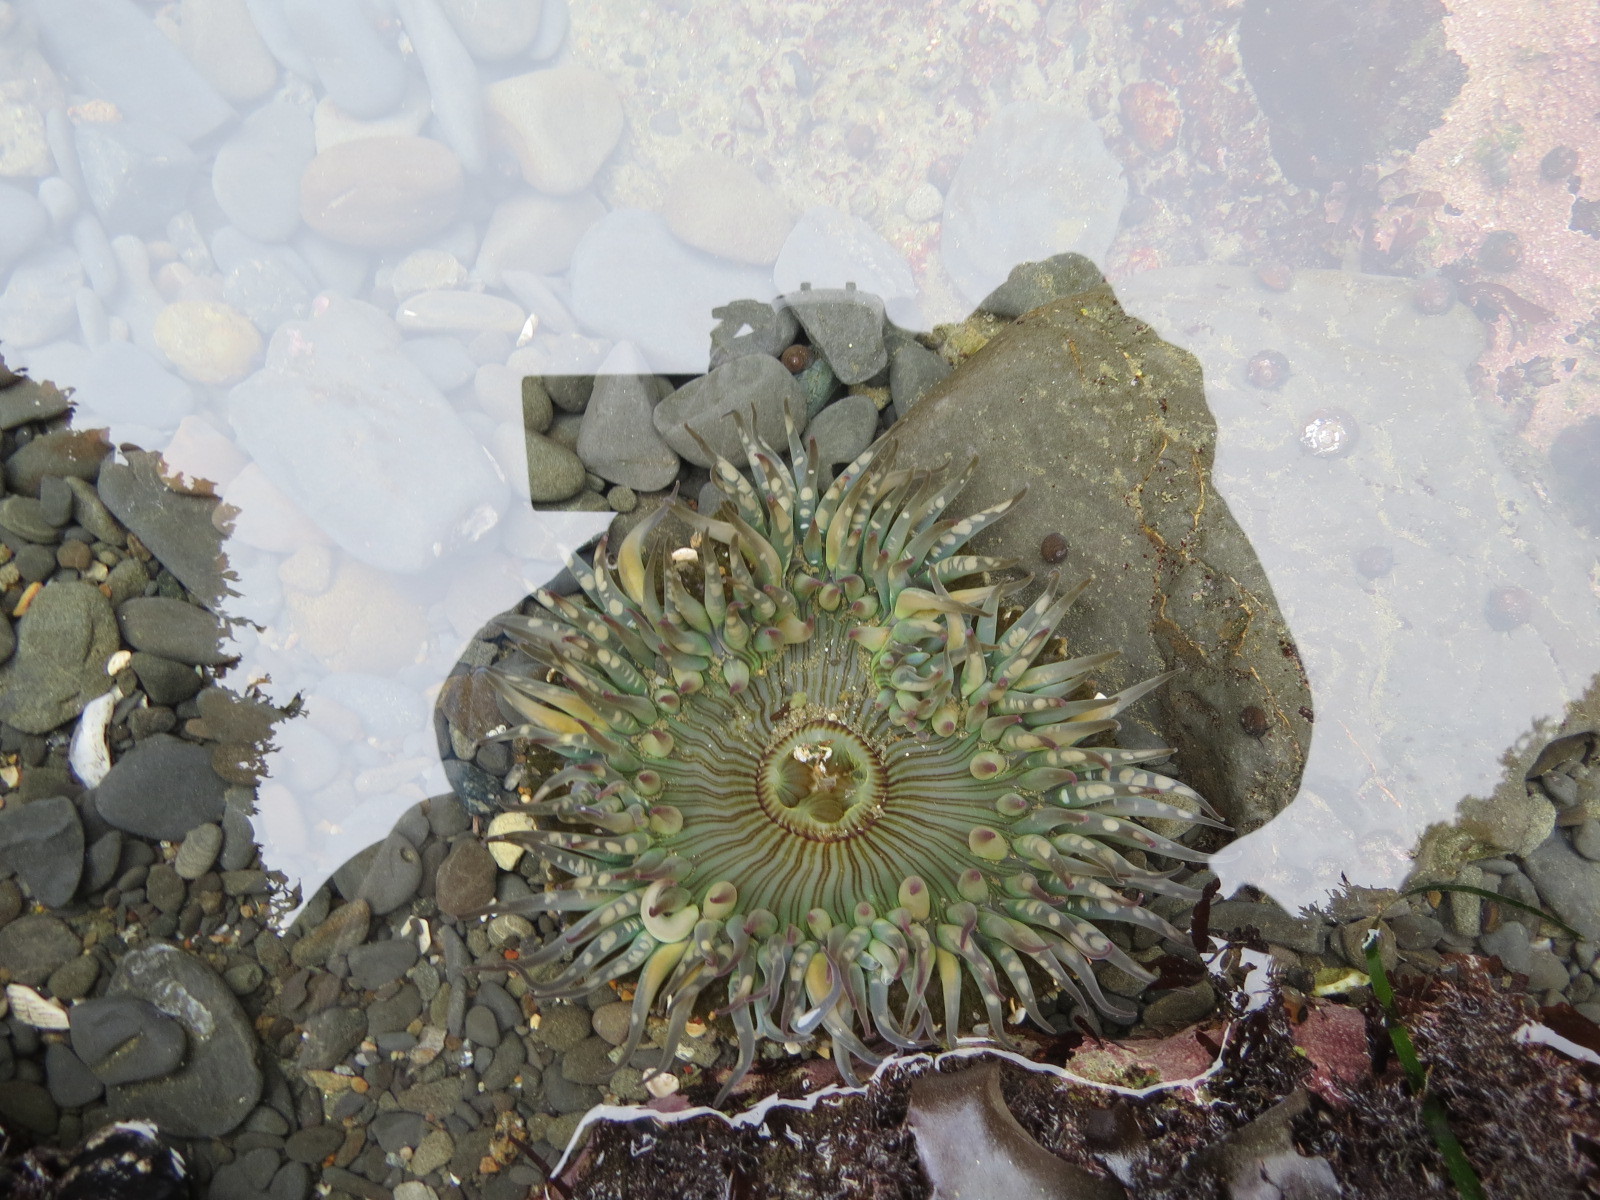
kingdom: Animalia
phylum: Cnidaria
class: Anthozoa
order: Actiniaria
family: Actiniidae
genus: Anthopleura
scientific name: Anthopleura sola
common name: Sun anemone
